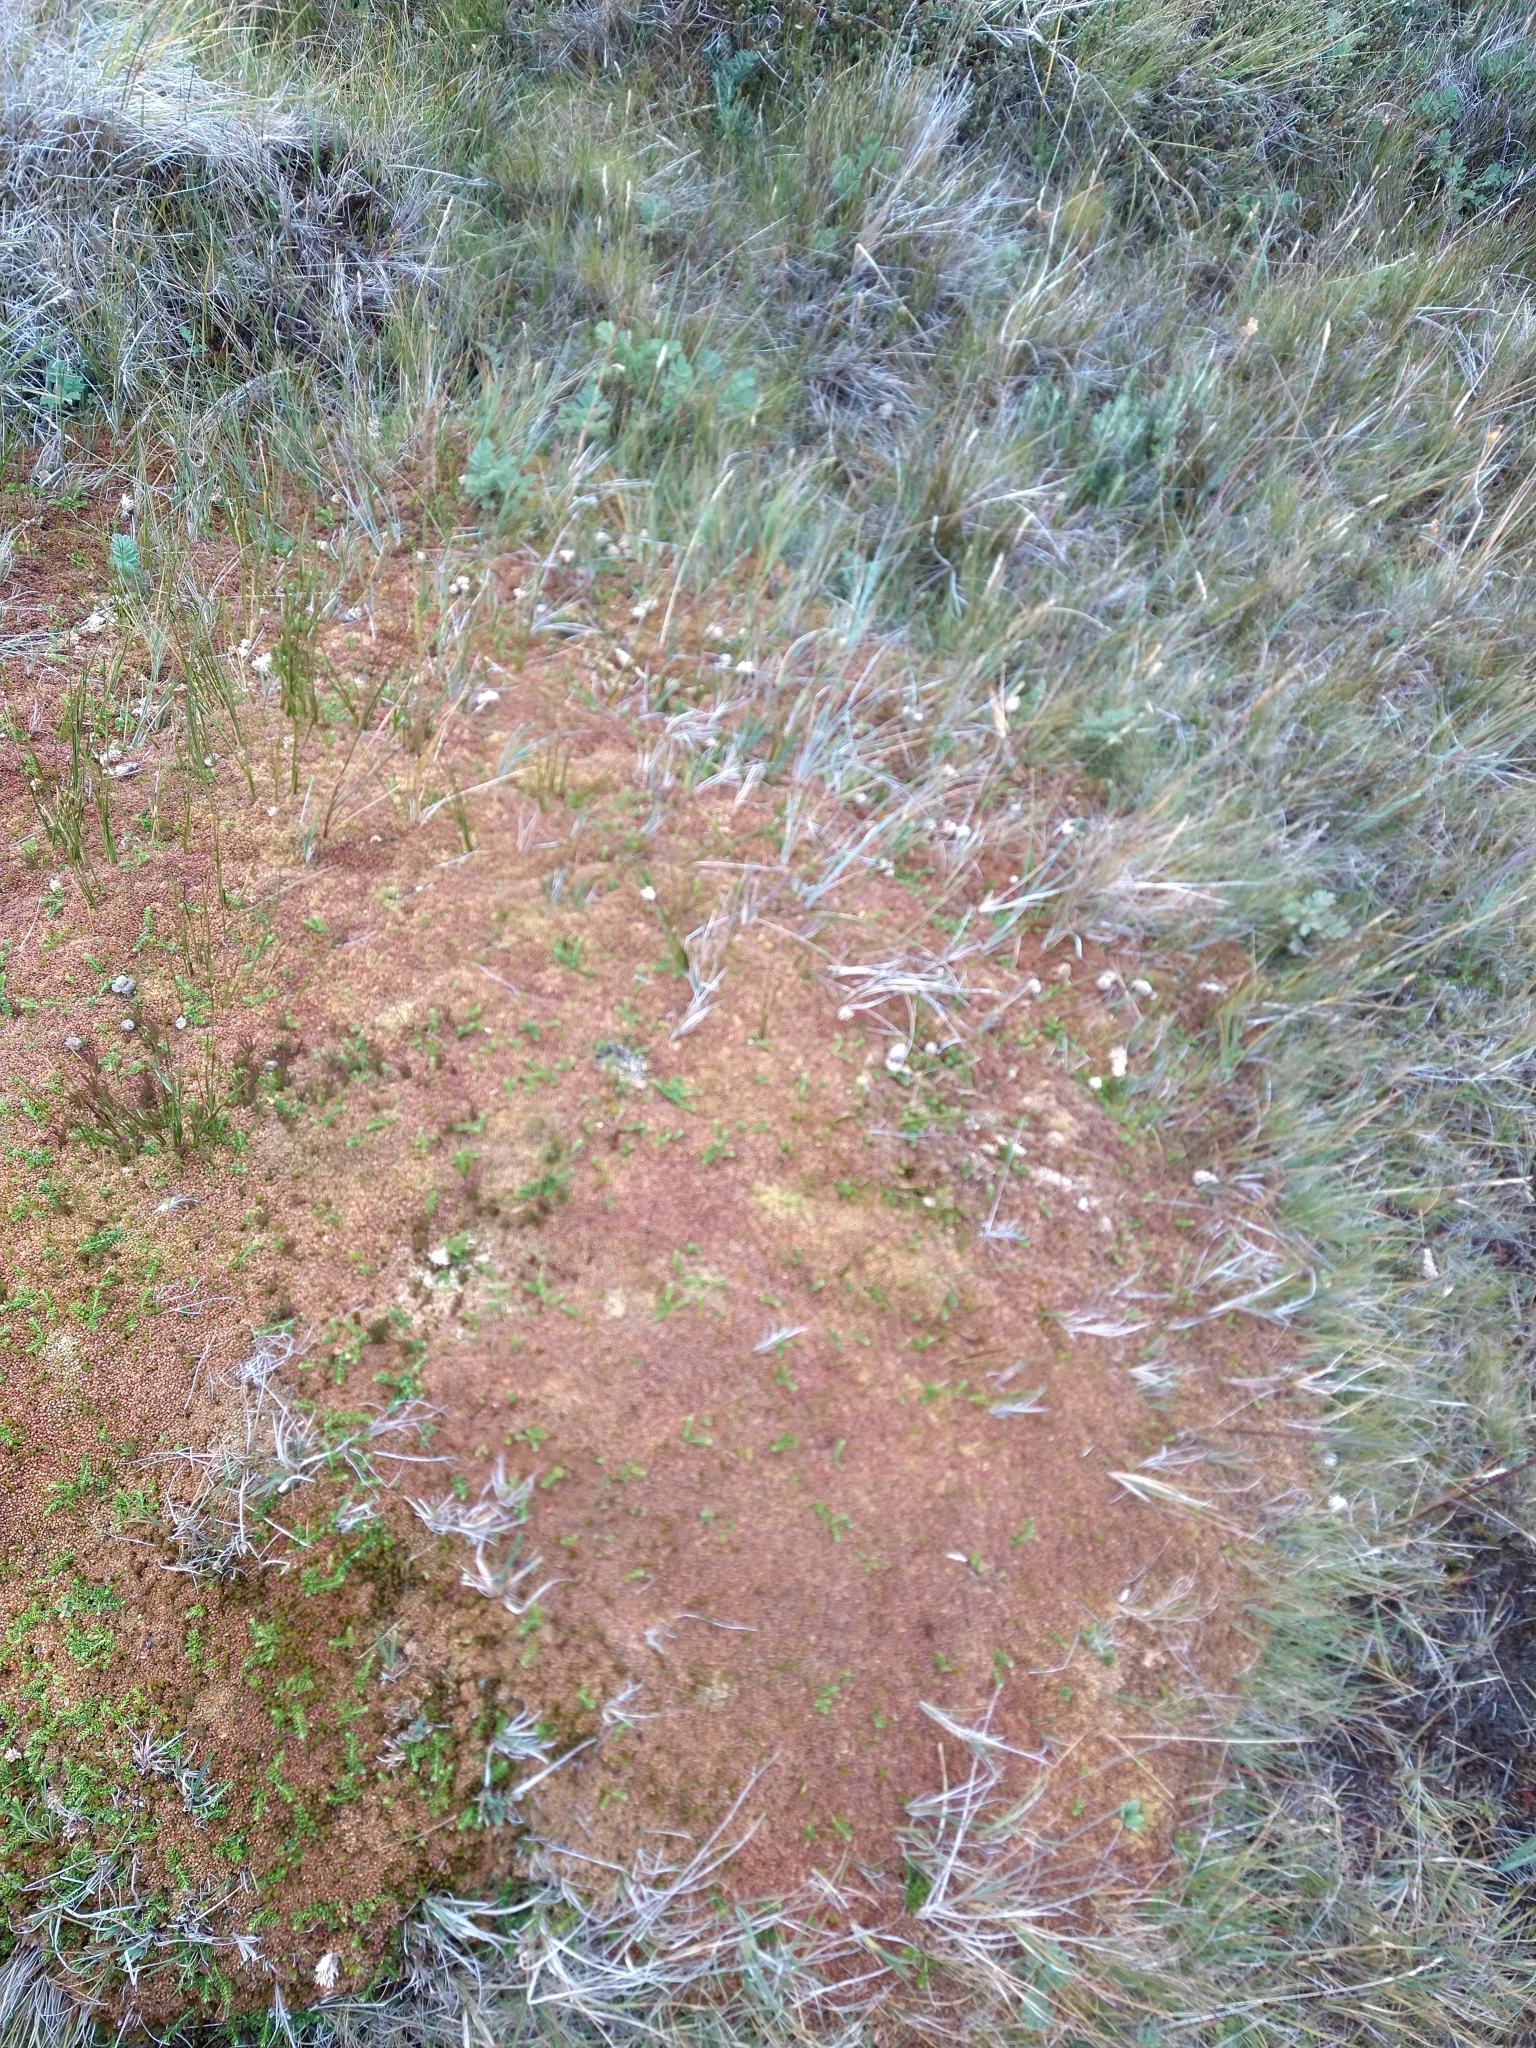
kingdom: Plantae
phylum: Bryophyta
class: Sphagnopsida
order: Sphagnales
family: Sphagnaceae
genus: Sphagnum
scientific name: Sphagnum magellanicum
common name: Magellan's peat moss
